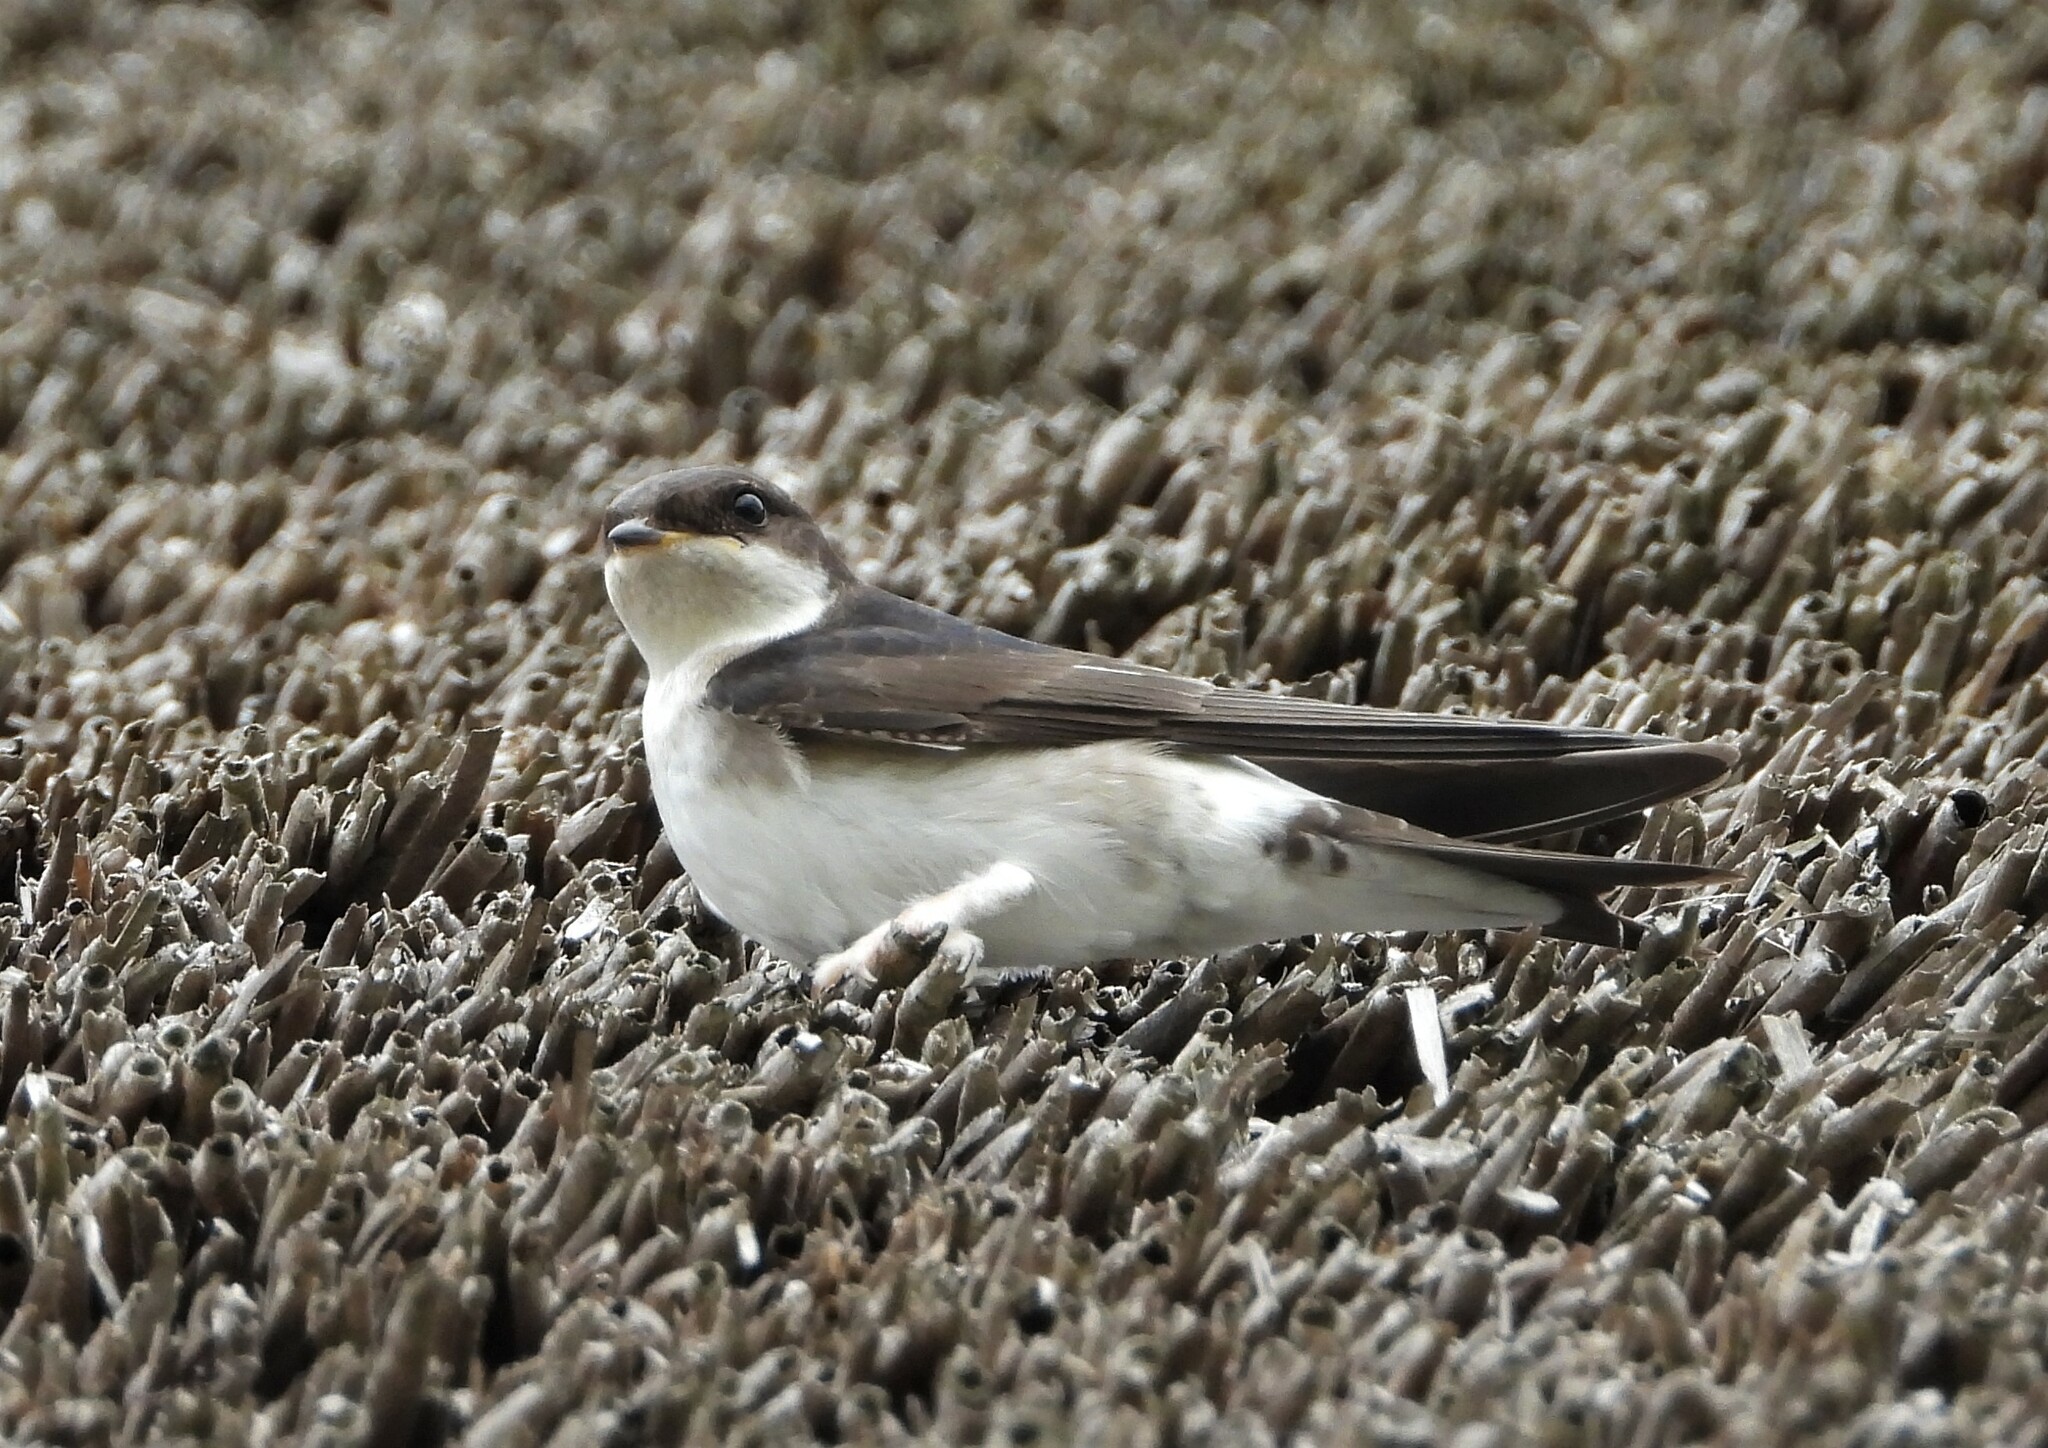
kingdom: Animalia
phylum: Chordata
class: Aves
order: Passeriformes
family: Hirundinidae
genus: Delichon
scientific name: Delichon urbicum
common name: Common house martin
